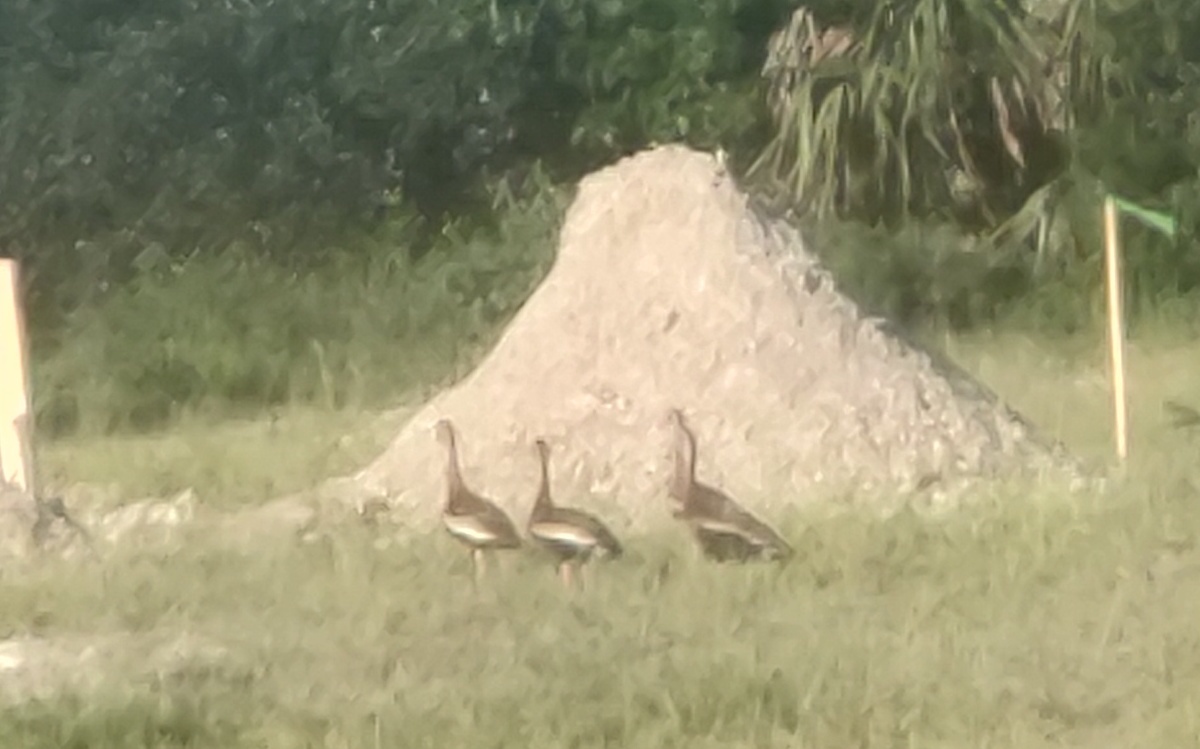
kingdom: Animalia
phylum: Chordata
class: Aves
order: Anseriformes
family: Anatidae
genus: Dendrocygna
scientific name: Dendrocygna autumnalis
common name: Black-bellied whistling duck
